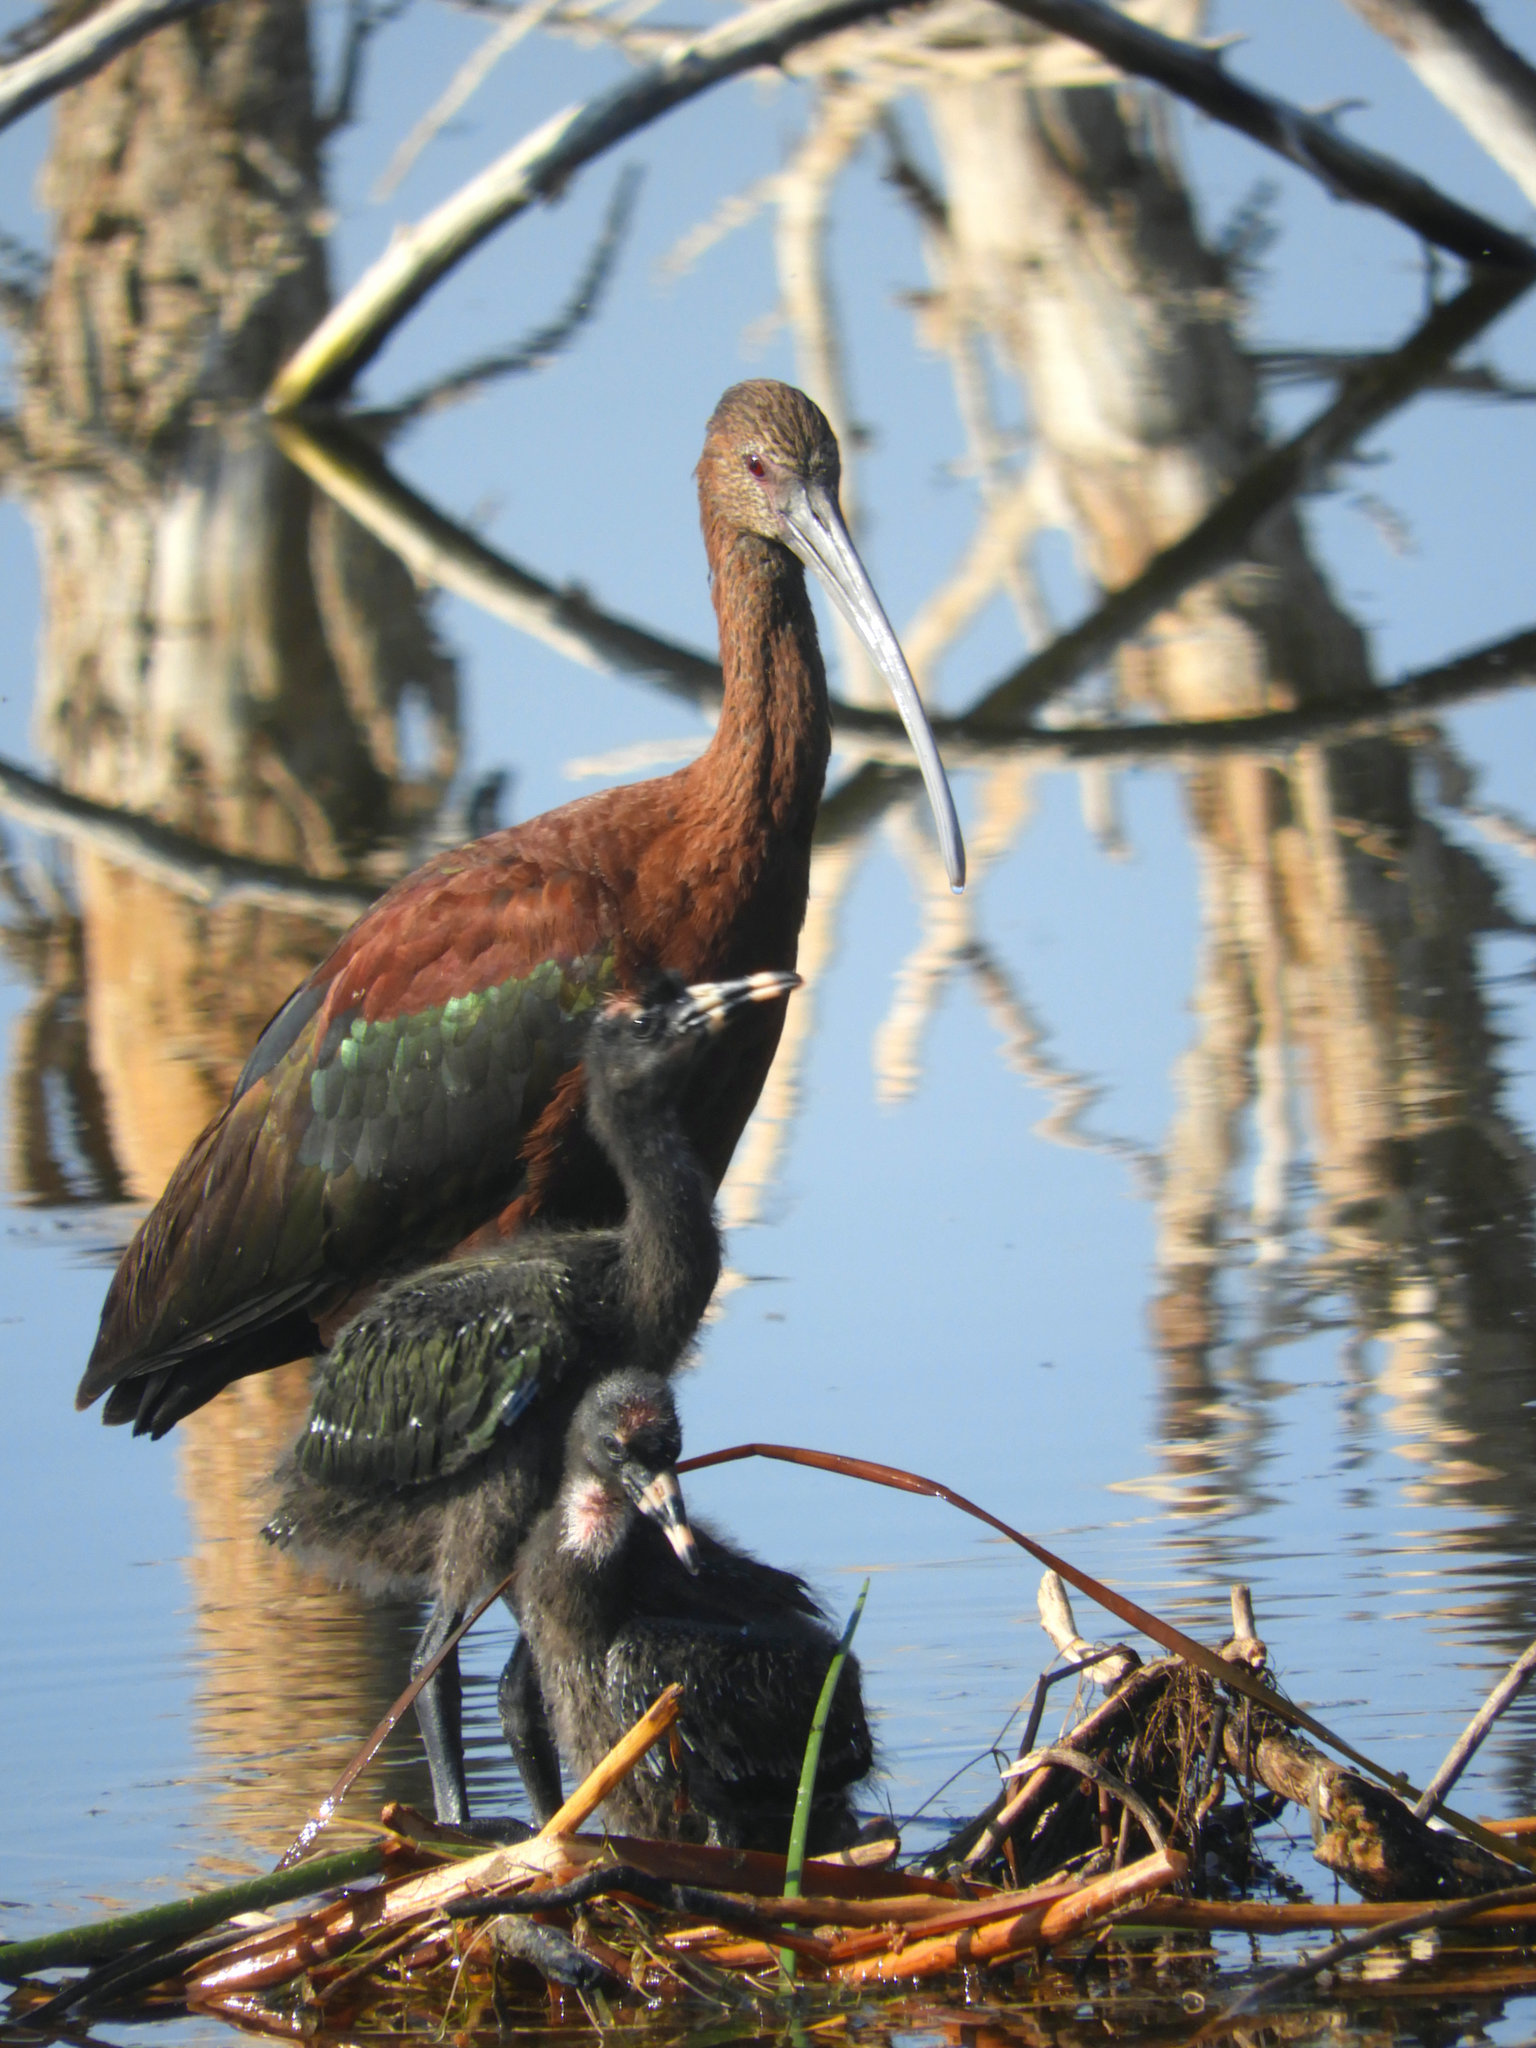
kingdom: Animalia
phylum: Chordata
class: Aves
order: Pelecaniformes
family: Threskiornithidae
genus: Plegadis
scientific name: Plegadis chihi
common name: White-faced ibis
